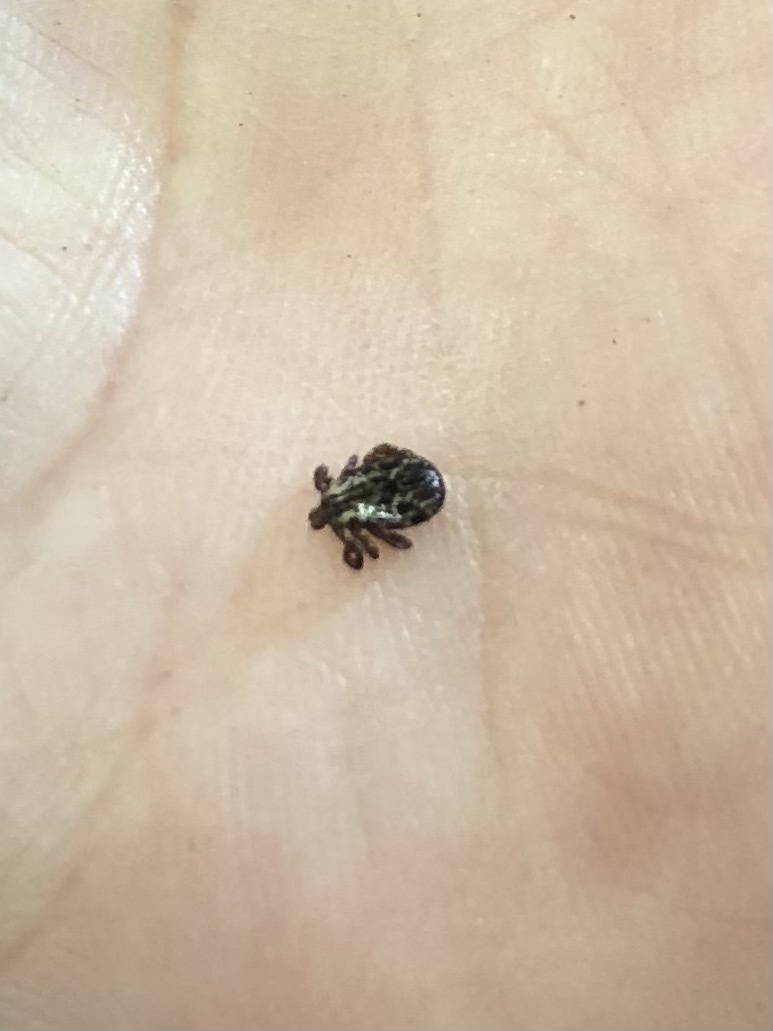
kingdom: Animalia
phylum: Arthropoda
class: Arachnida
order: Ixodida
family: Ixodidae
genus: Dermacentor
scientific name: Dermacentor variabilis
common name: American dog tick
